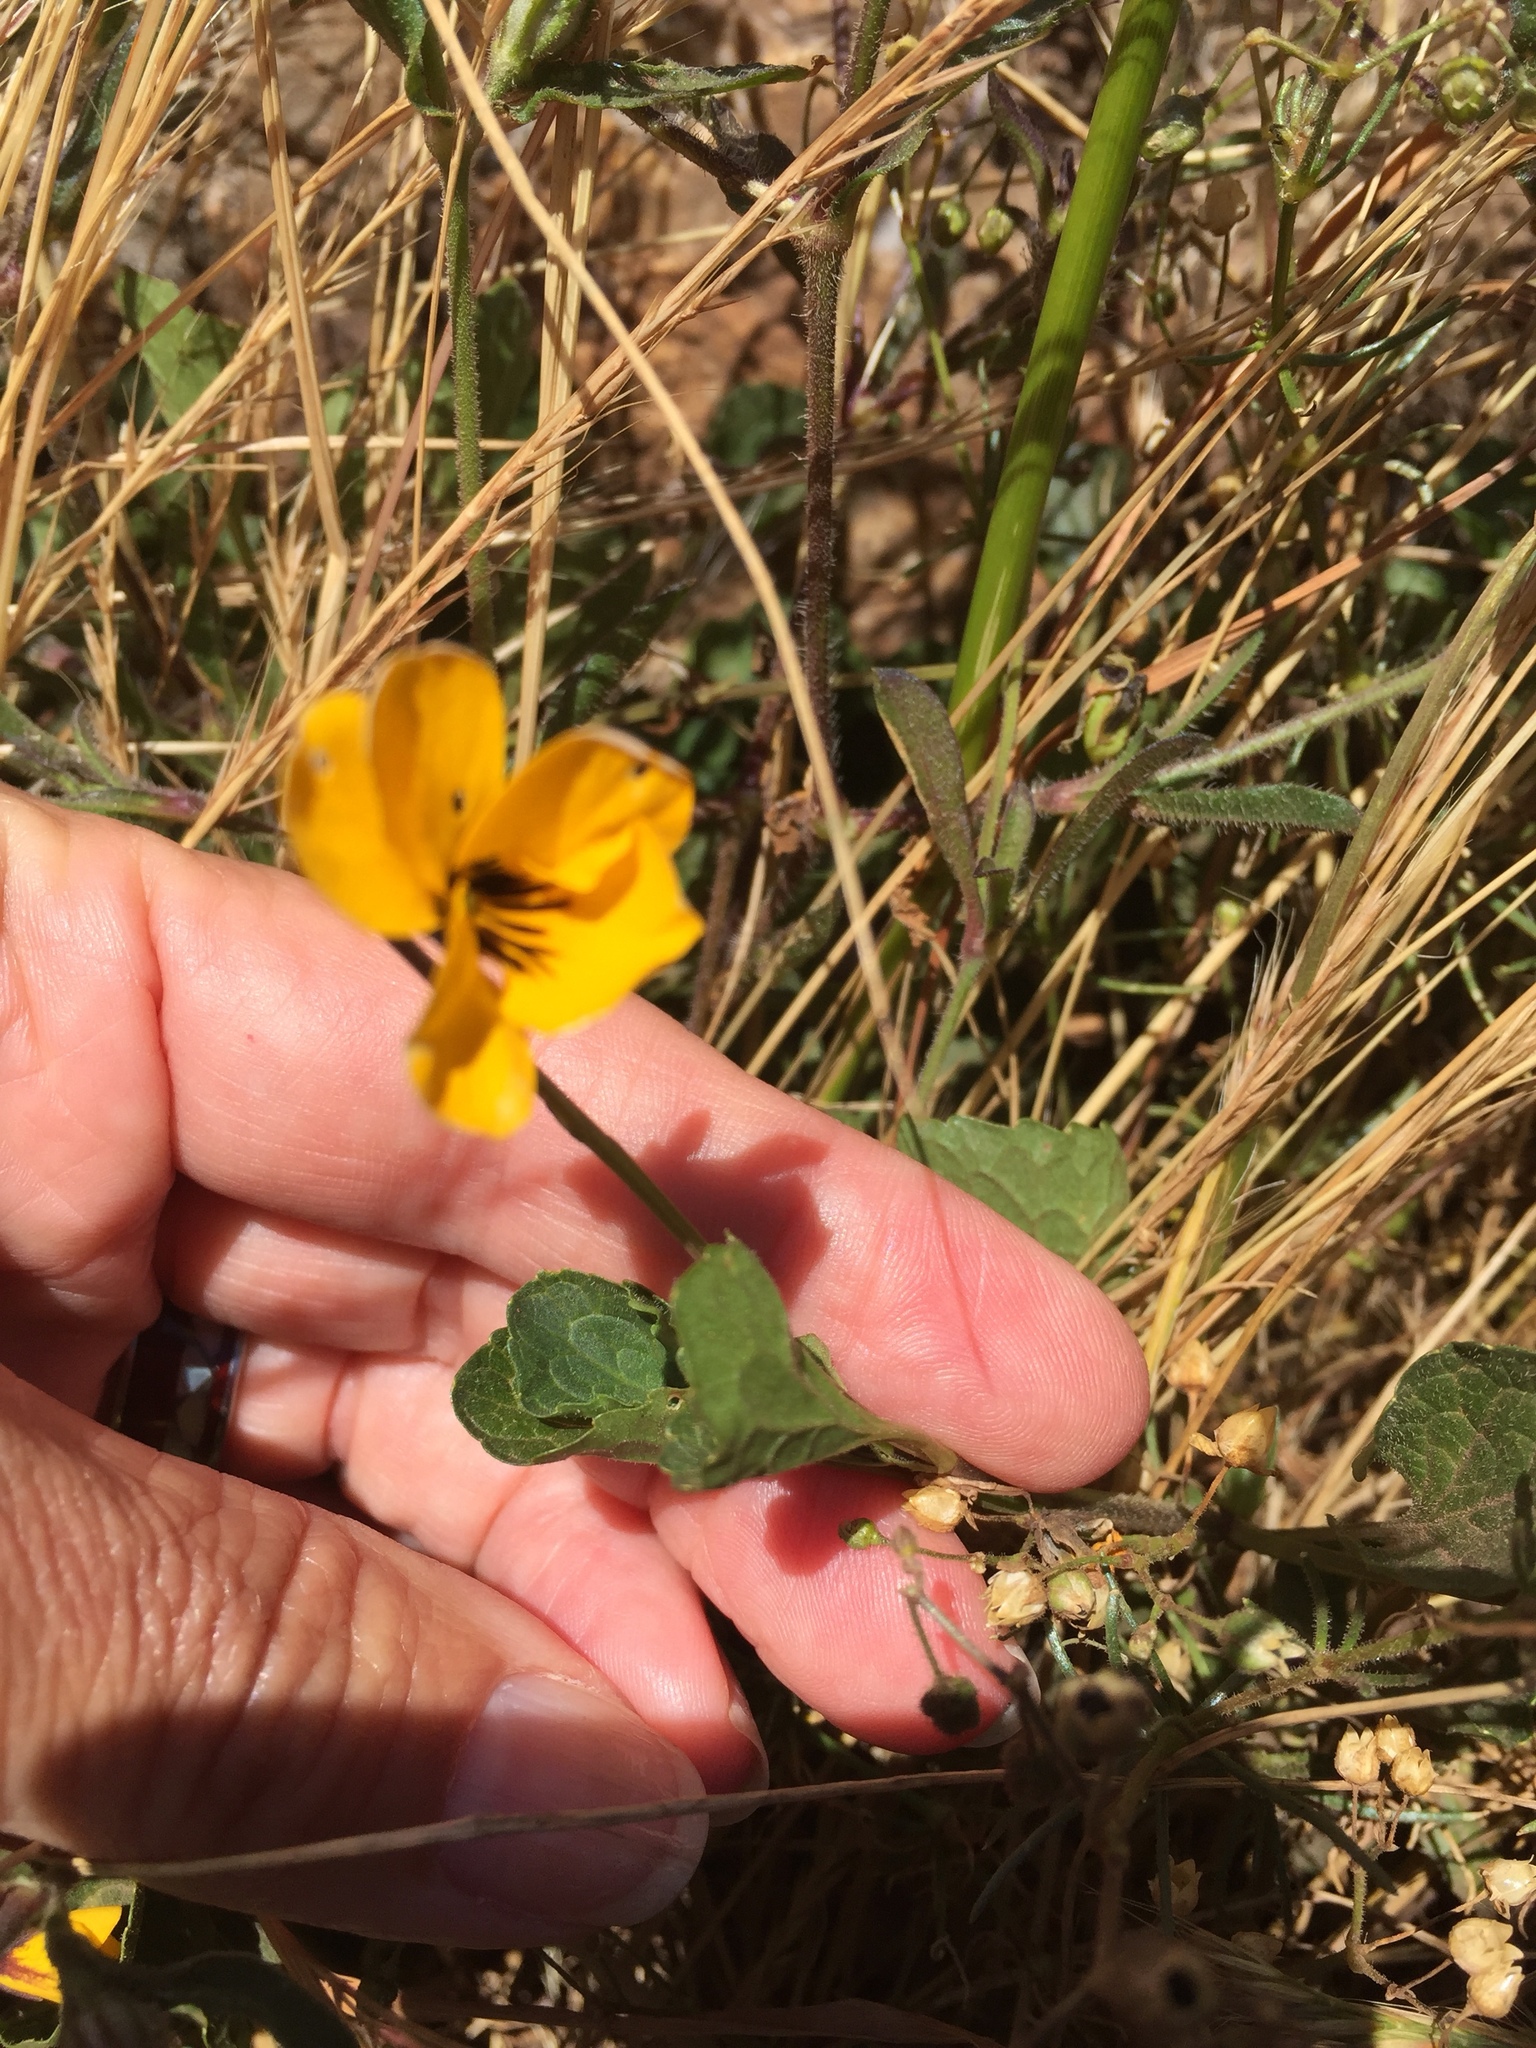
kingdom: Plantae
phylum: Tracheophyta
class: Magnoliopsida
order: Malpighiales
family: Violaceae
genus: Viola
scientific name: Viola pedunculata
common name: California golden violet
